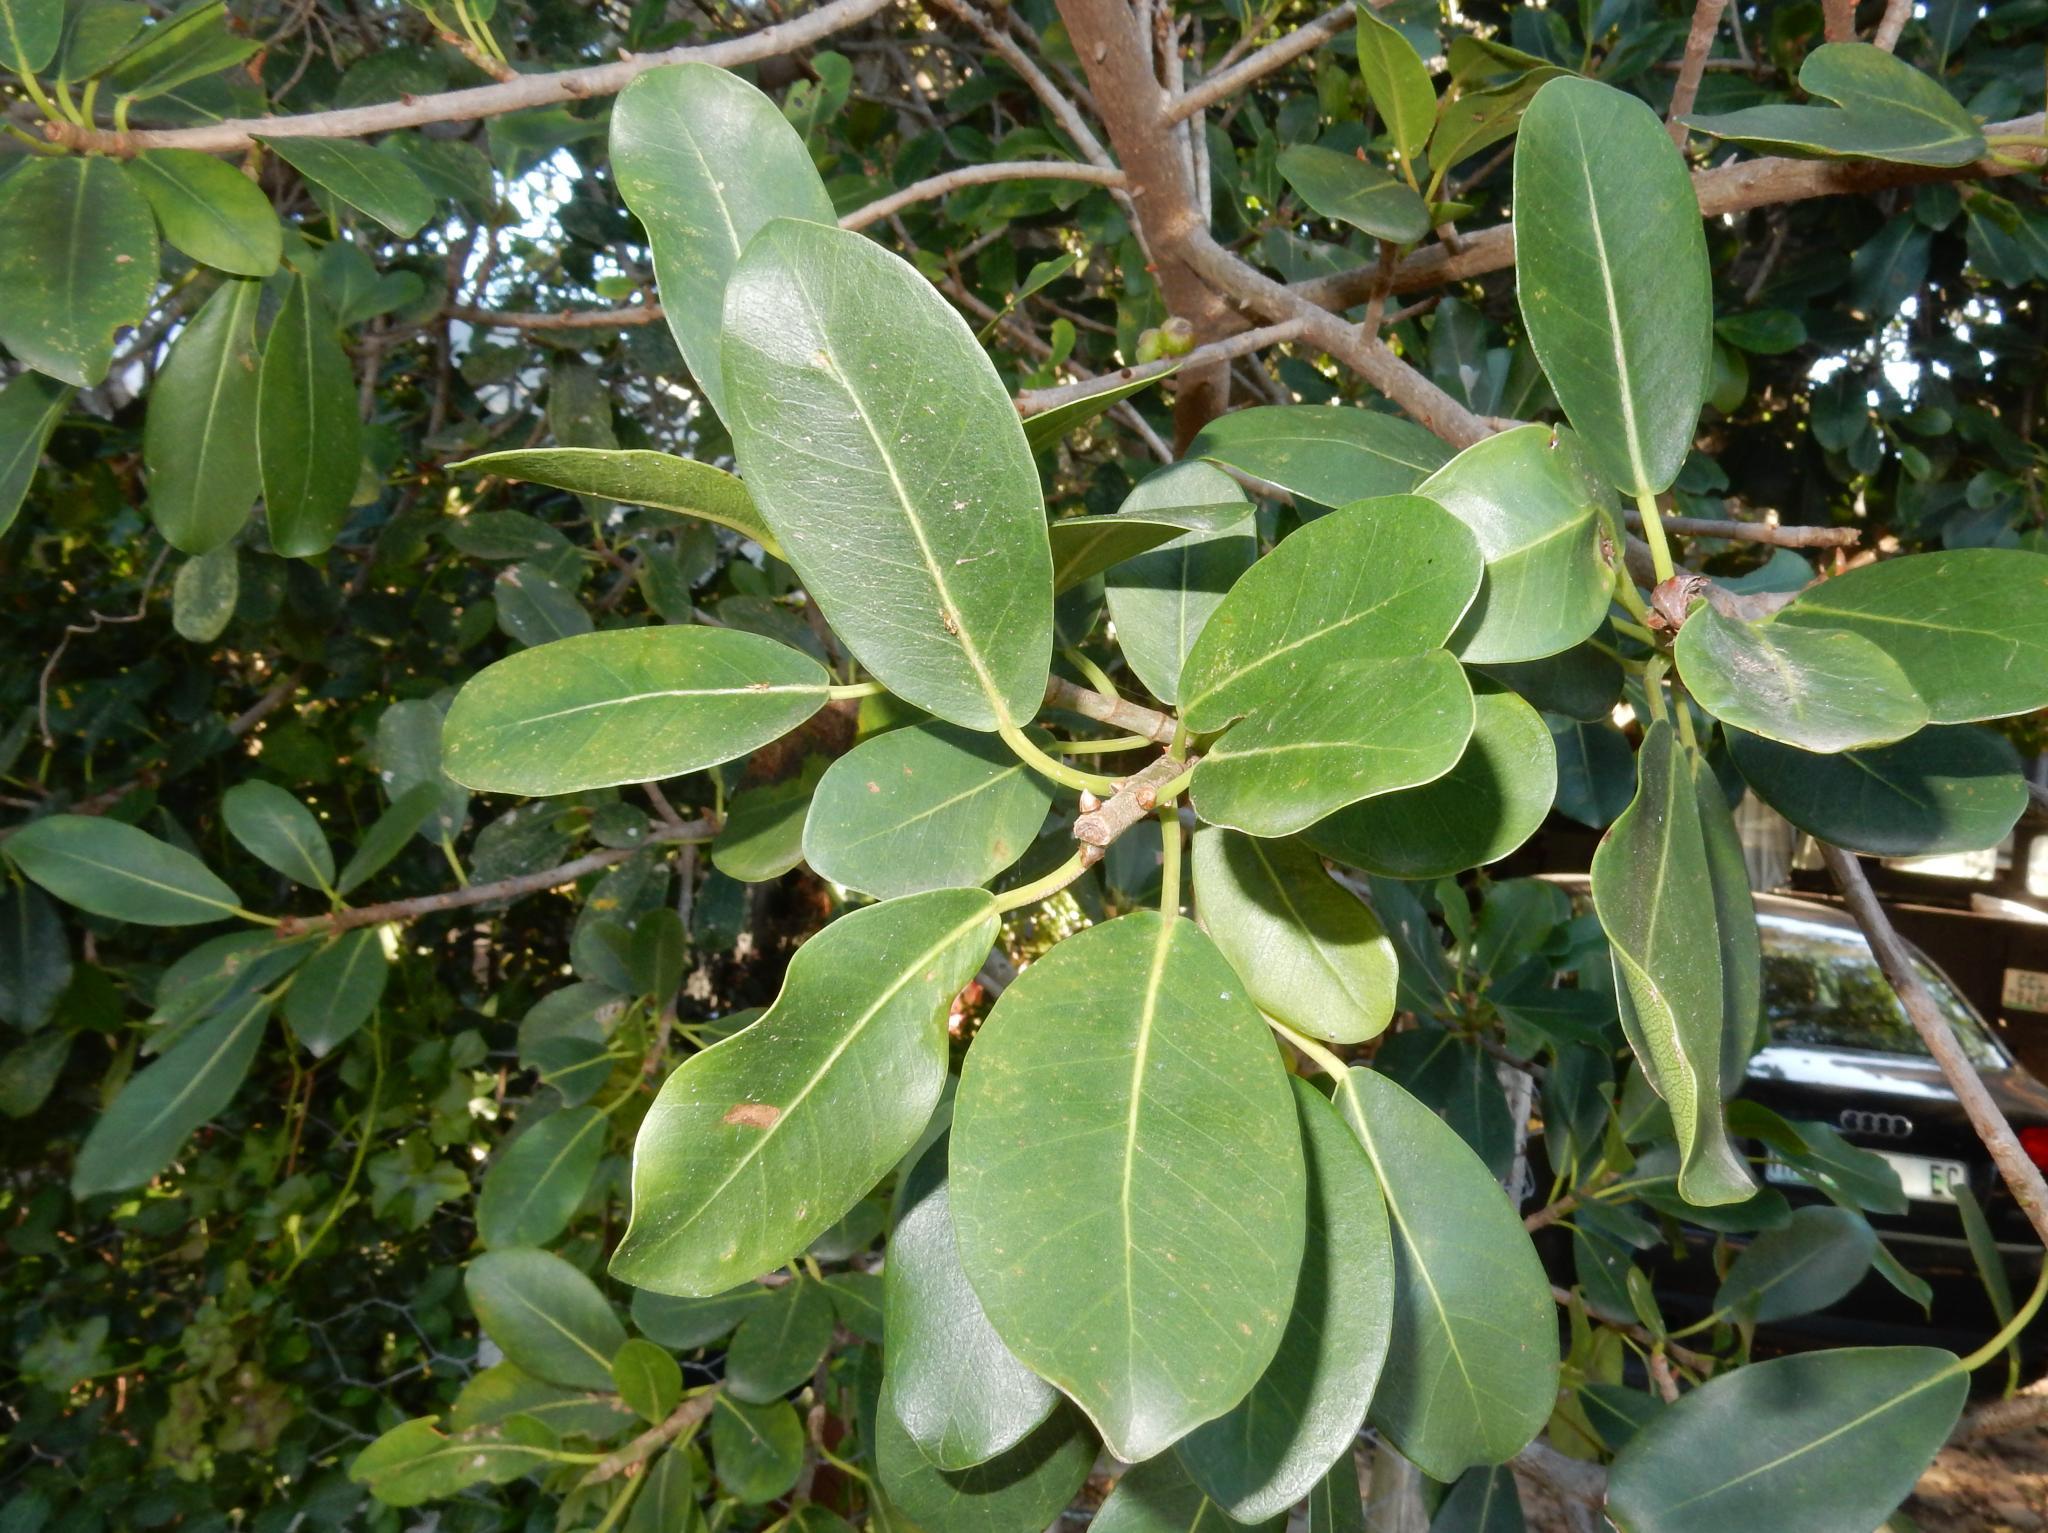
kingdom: Plantae
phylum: Tracheophyta
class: Magnoliopsida
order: Rosales
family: Moraceae
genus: Ficus
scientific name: Ficus thonningii
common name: Fig
